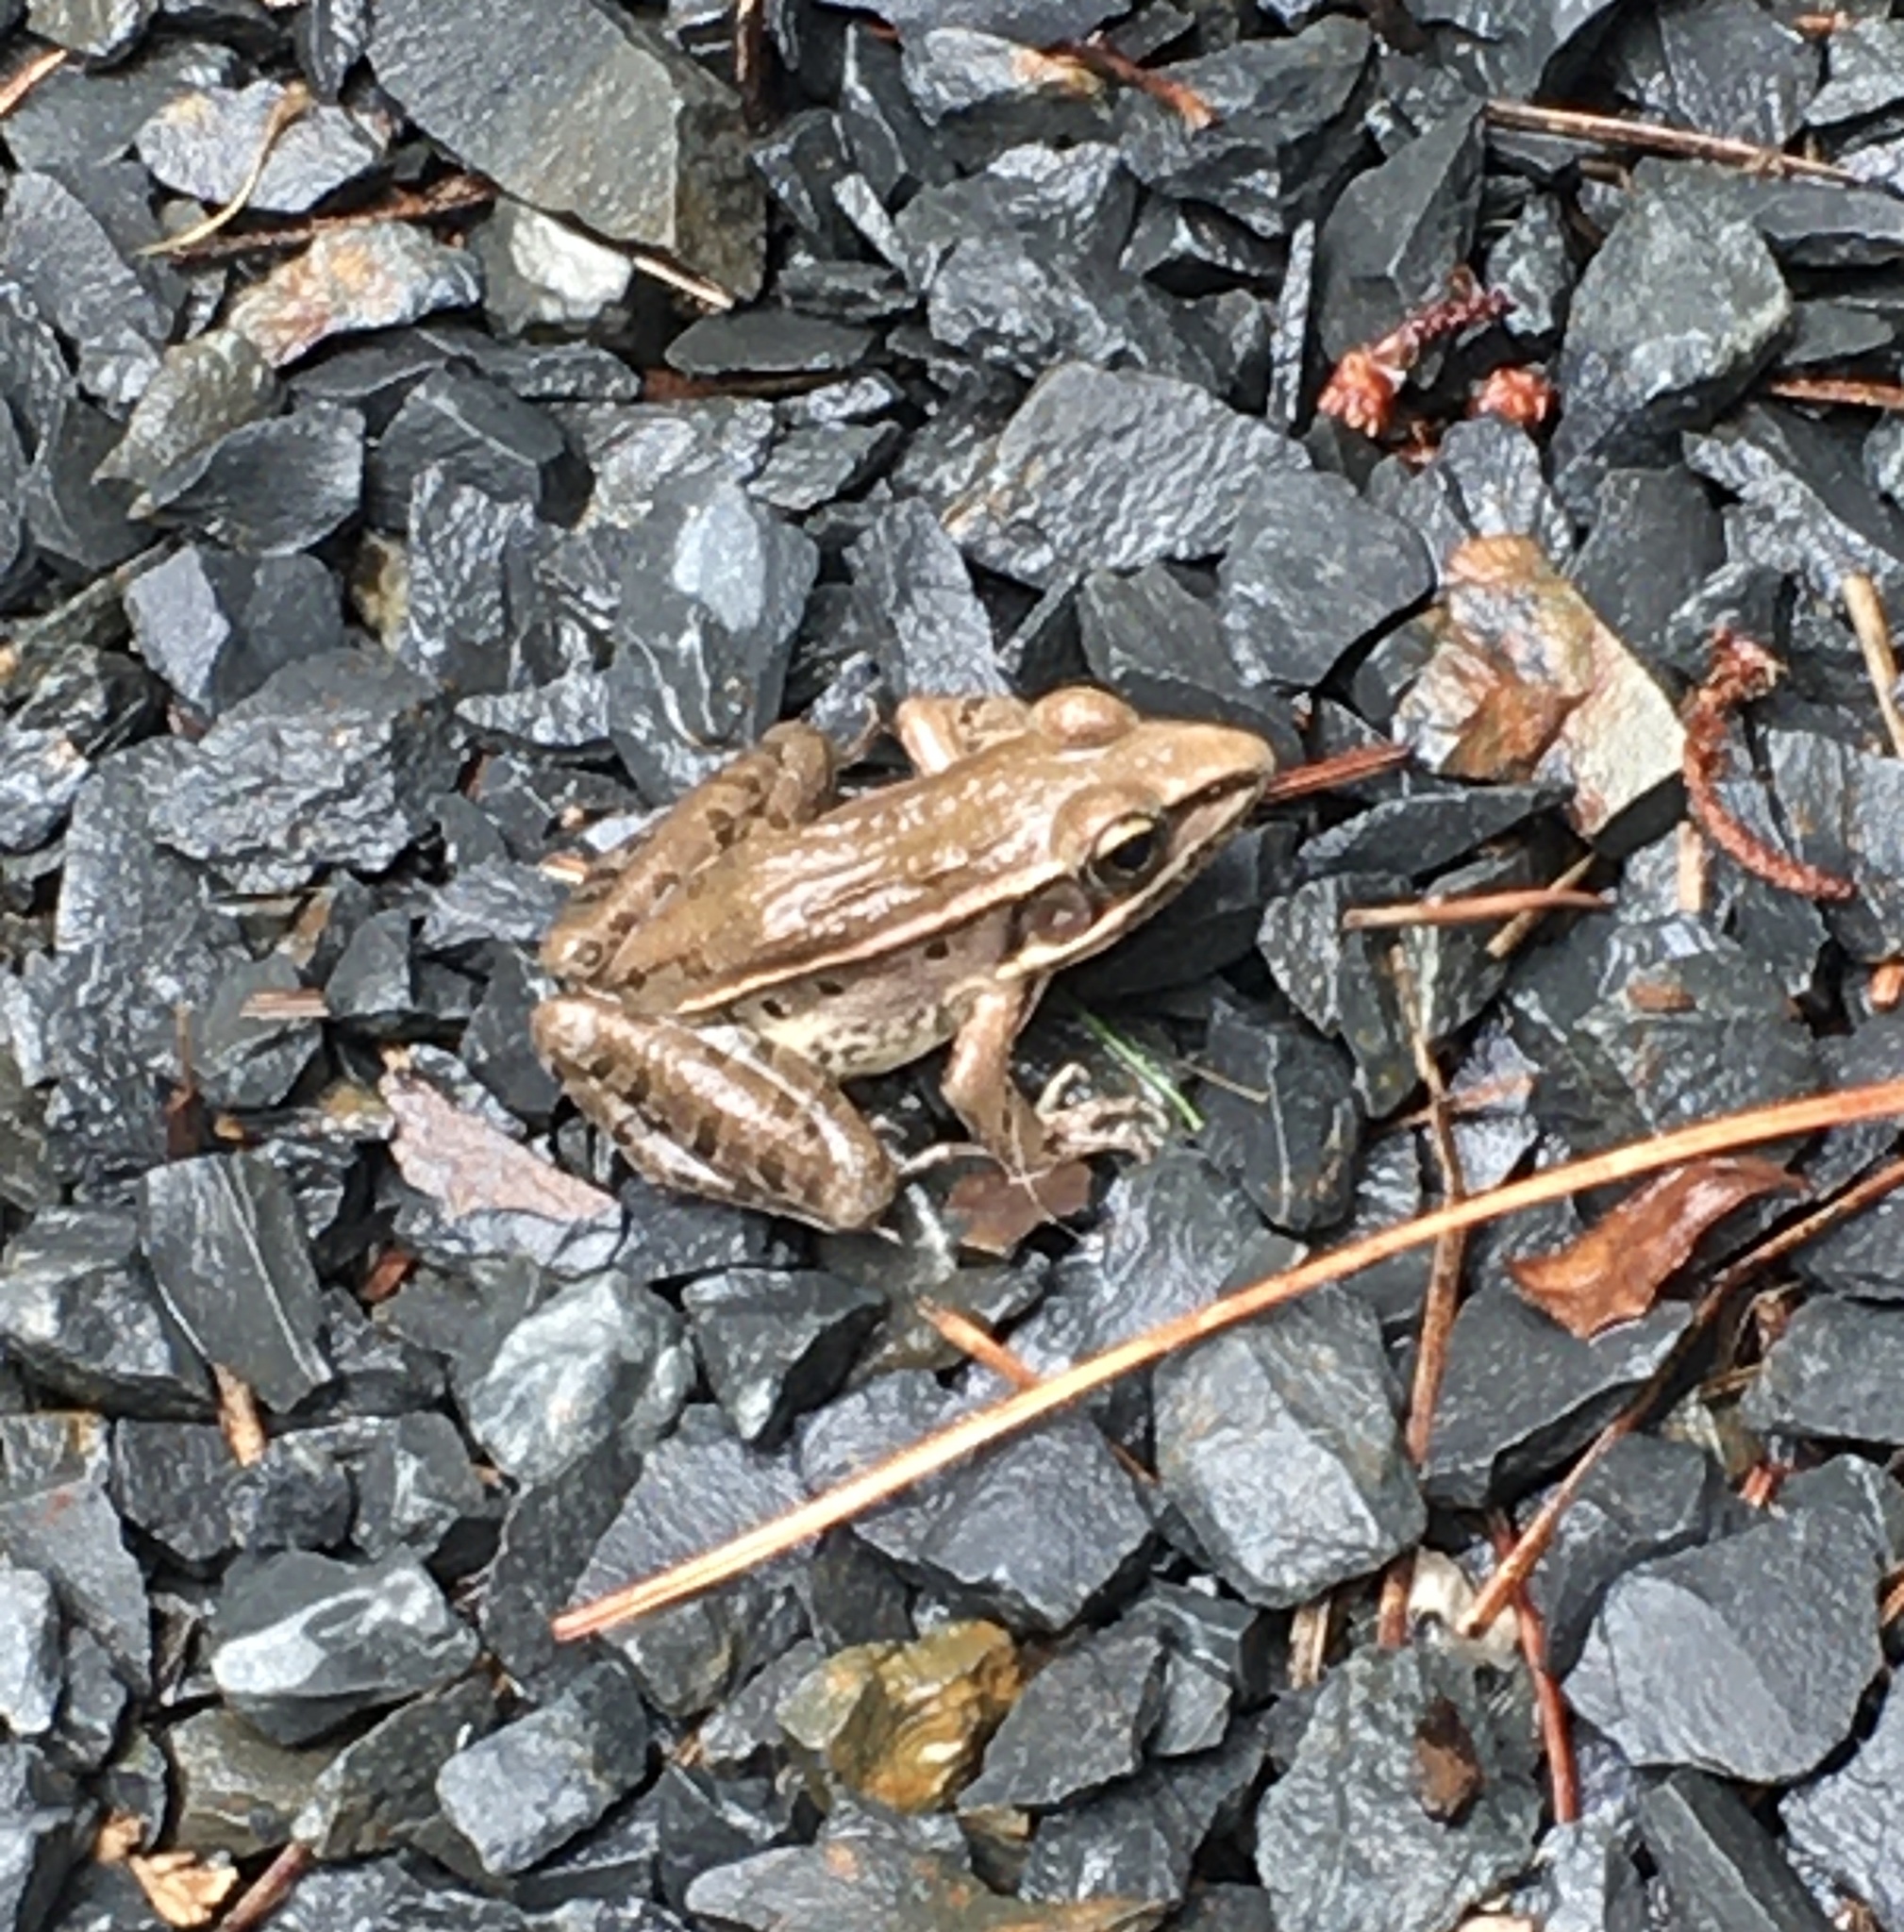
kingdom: Animalia
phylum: Chordata
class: Amphibia
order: Anura
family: Ranidae
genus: Lithobates
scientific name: Lithobates sphenocephalus
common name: Southern leopard frog
